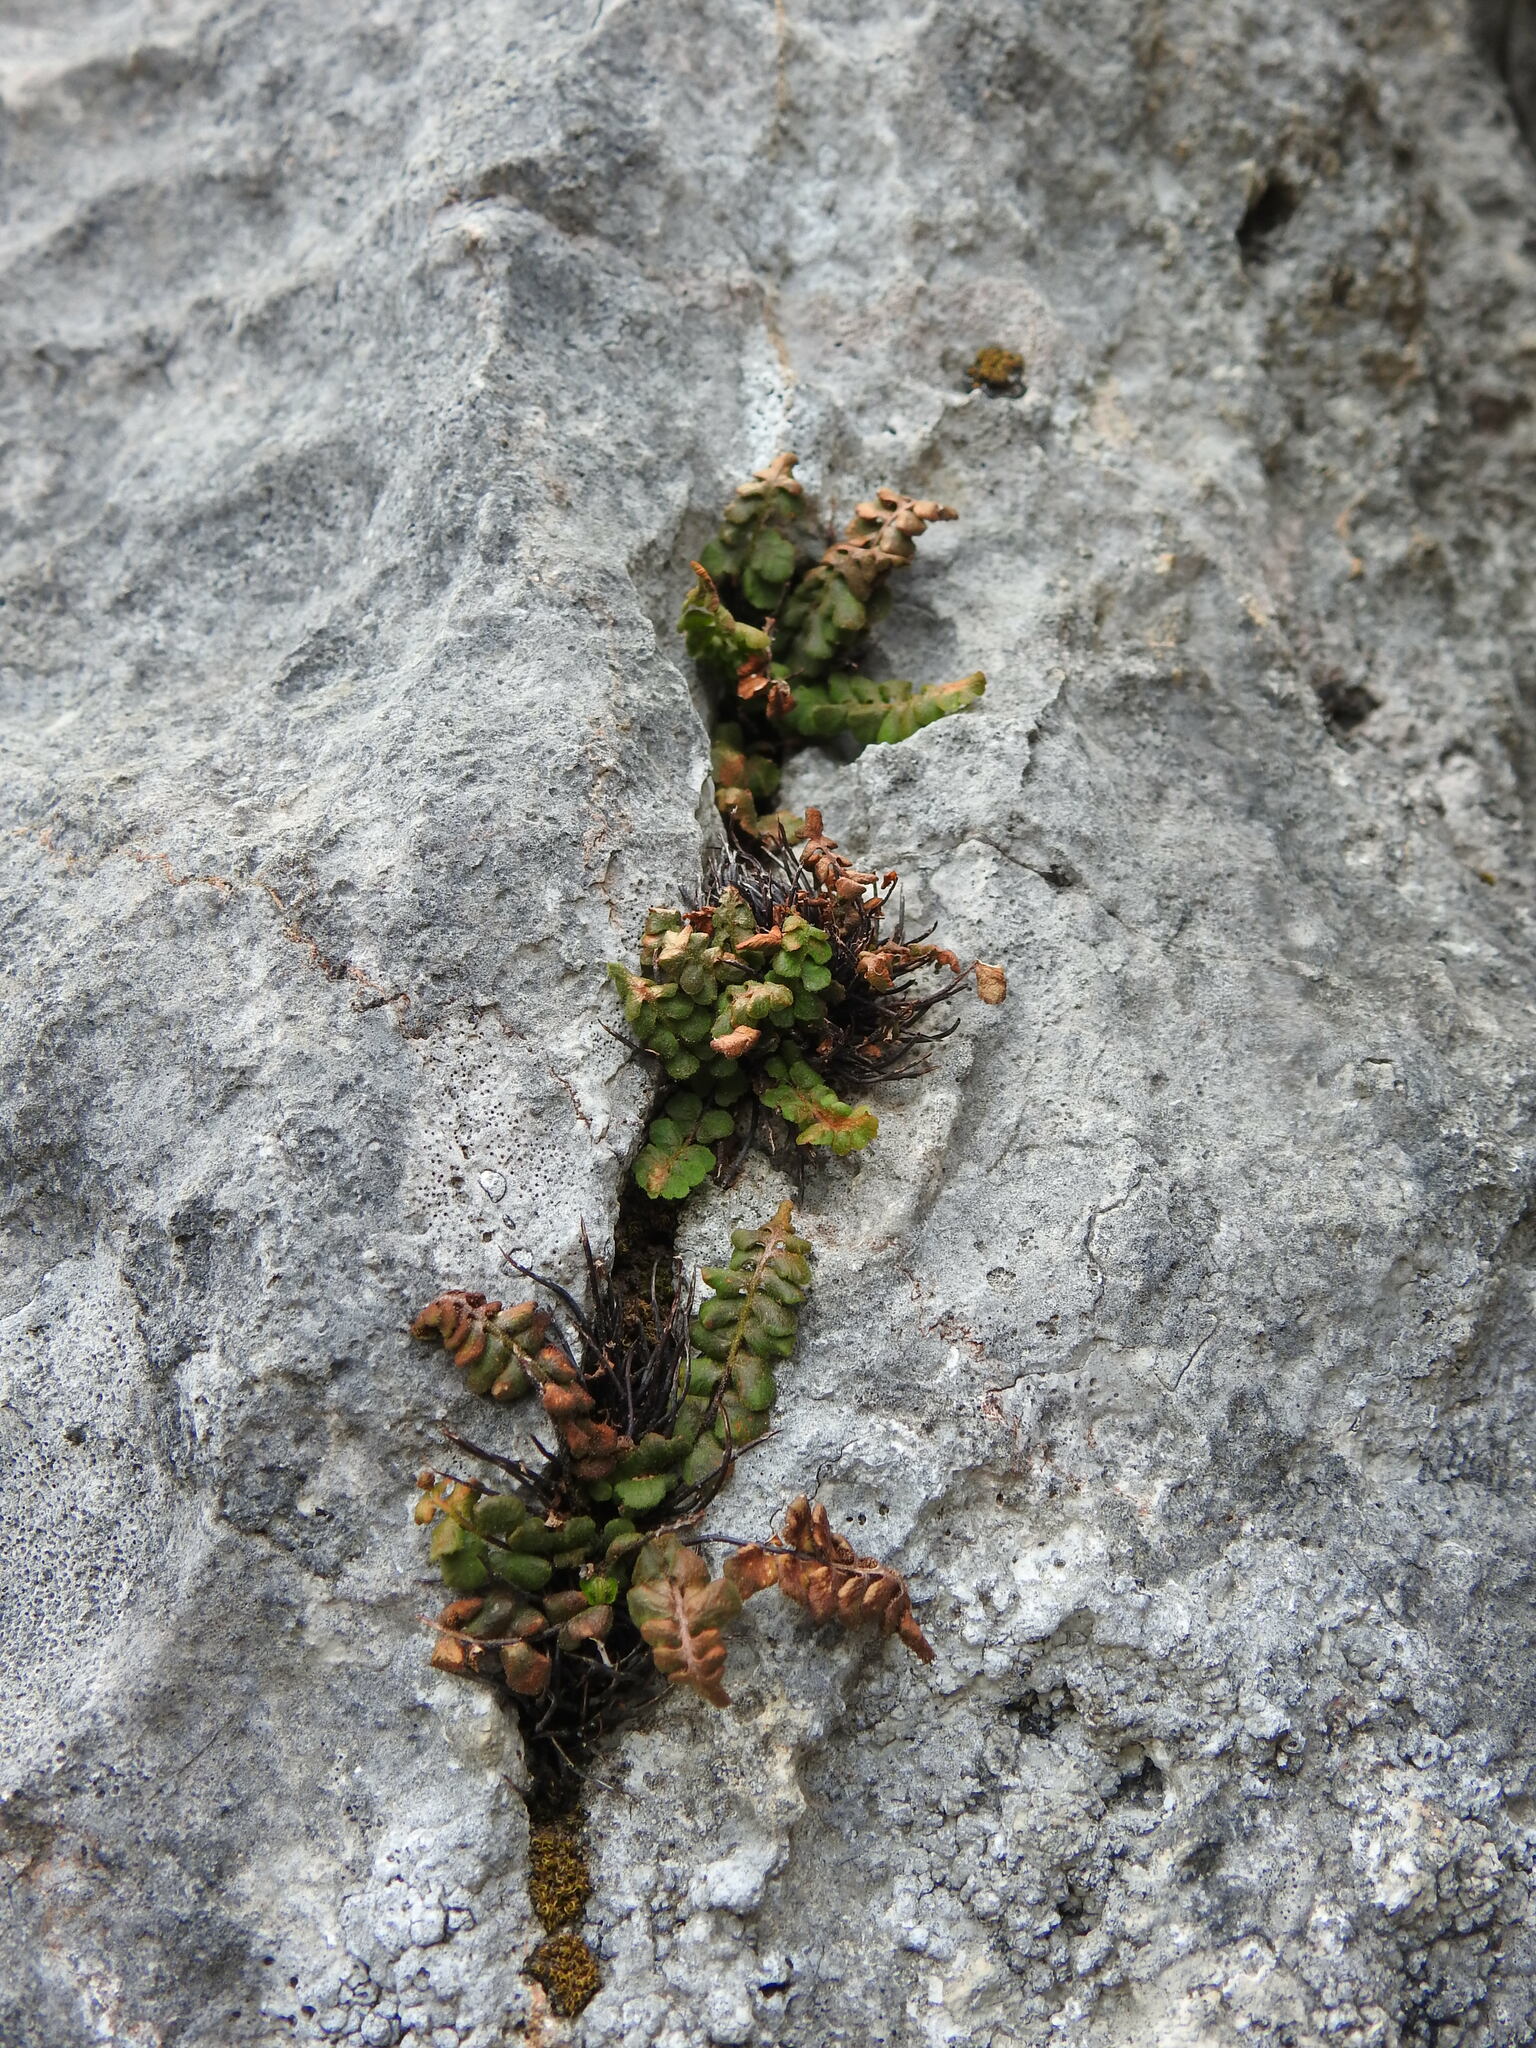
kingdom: Plantae
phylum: Tracheophyta
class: Polypodiopsida
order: Polypodiales
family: Aspleniaceae
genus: Asplenium
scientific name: Asplenium petrarchae
